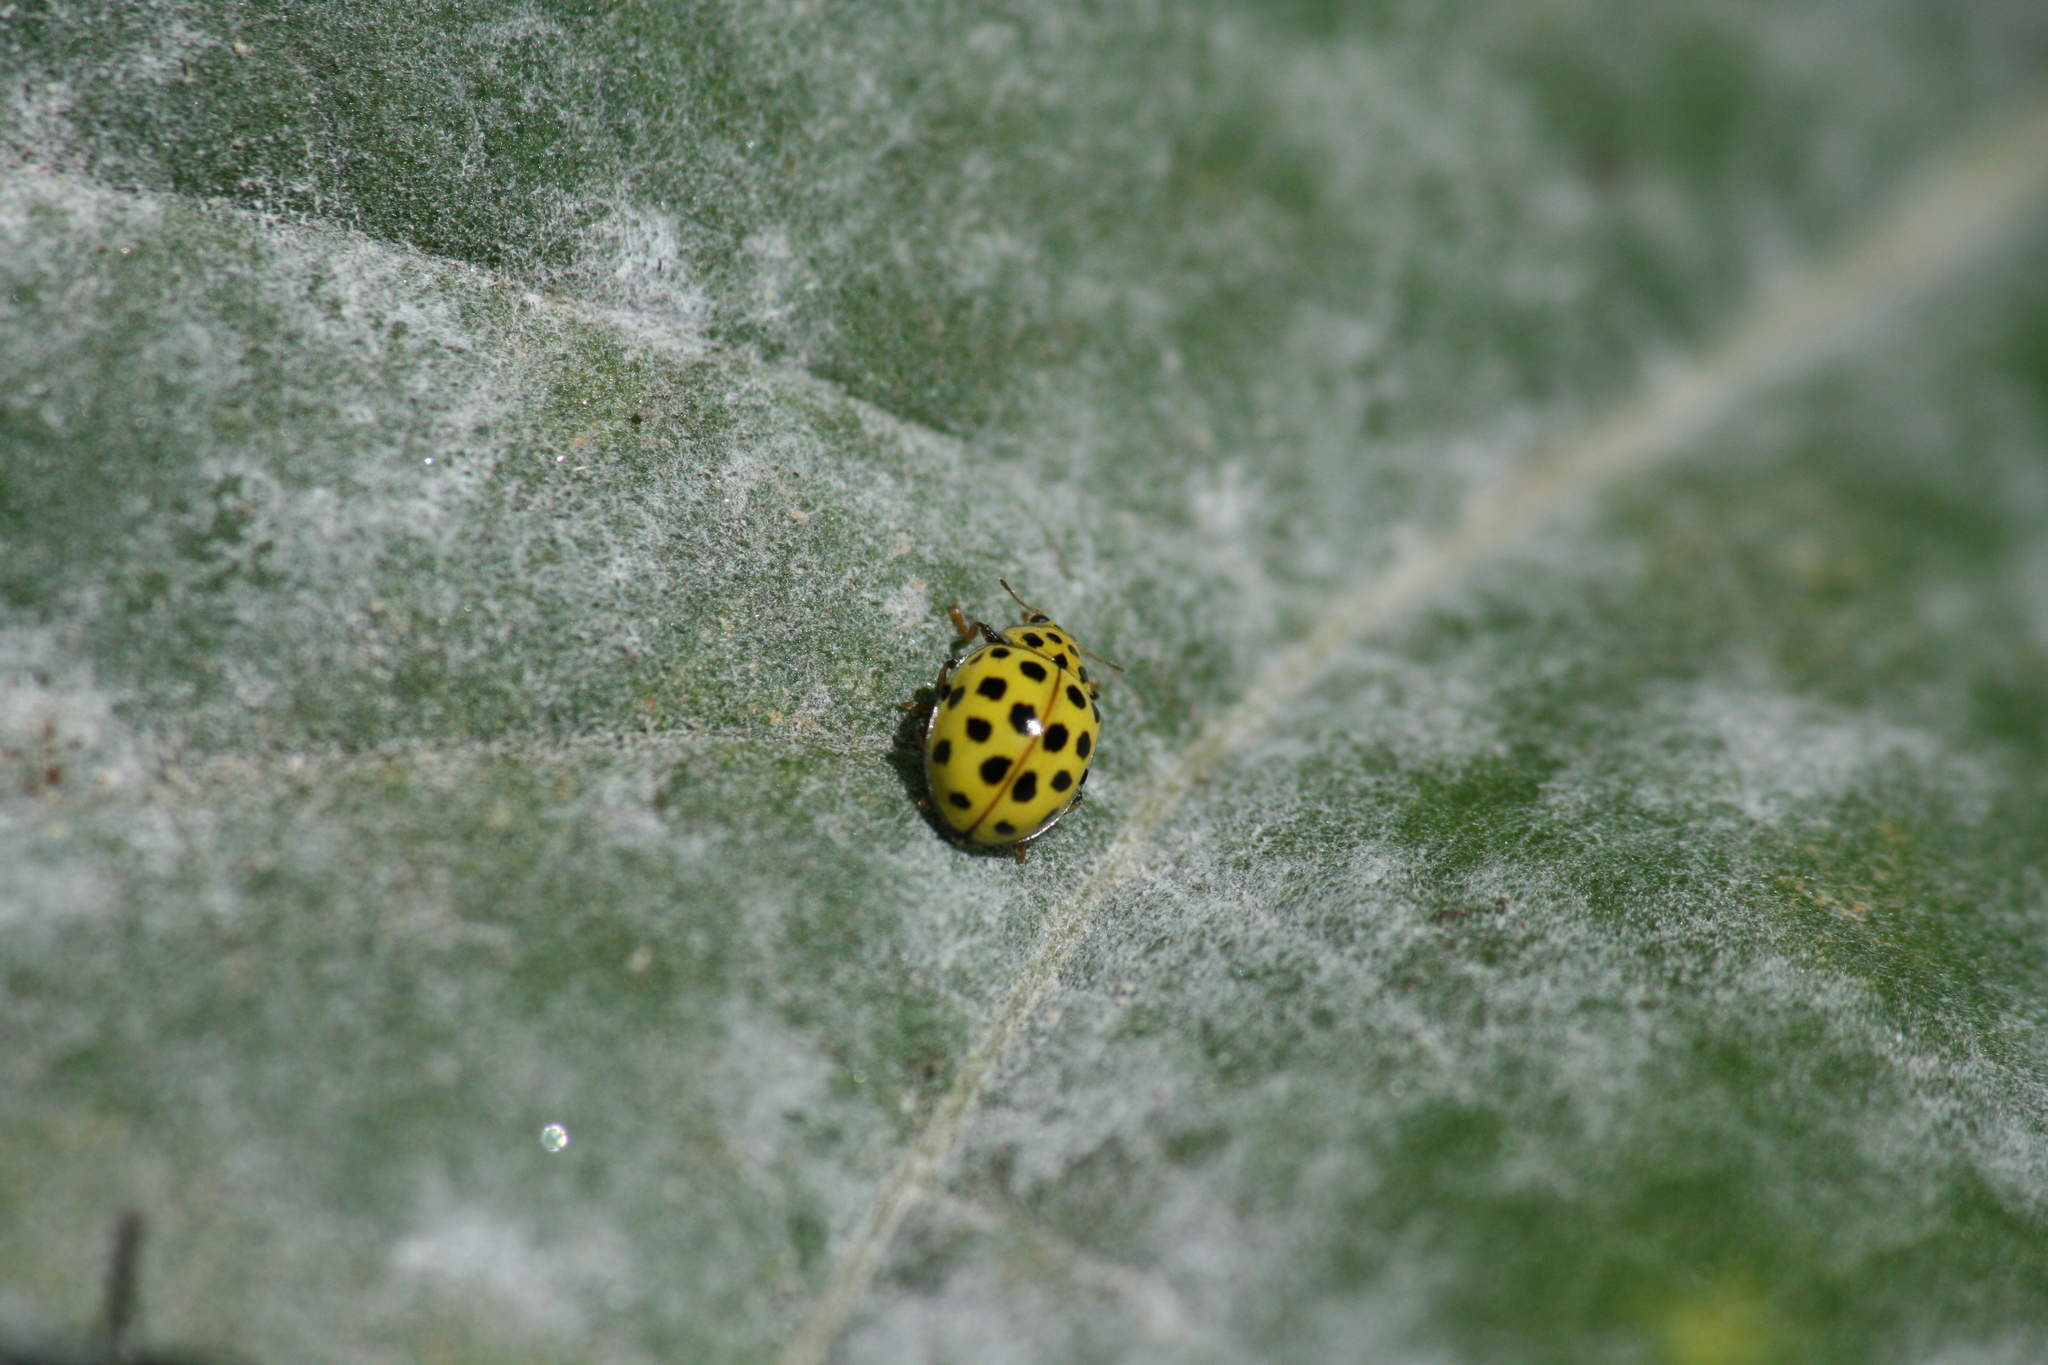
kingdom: Animalia
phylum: Arthropoda
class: Insecta
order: Coleoptera
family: Coccinellidae
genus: Psyllobora
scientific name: Psyllobora vigintiduopunctata
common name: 22-spot ladybird
